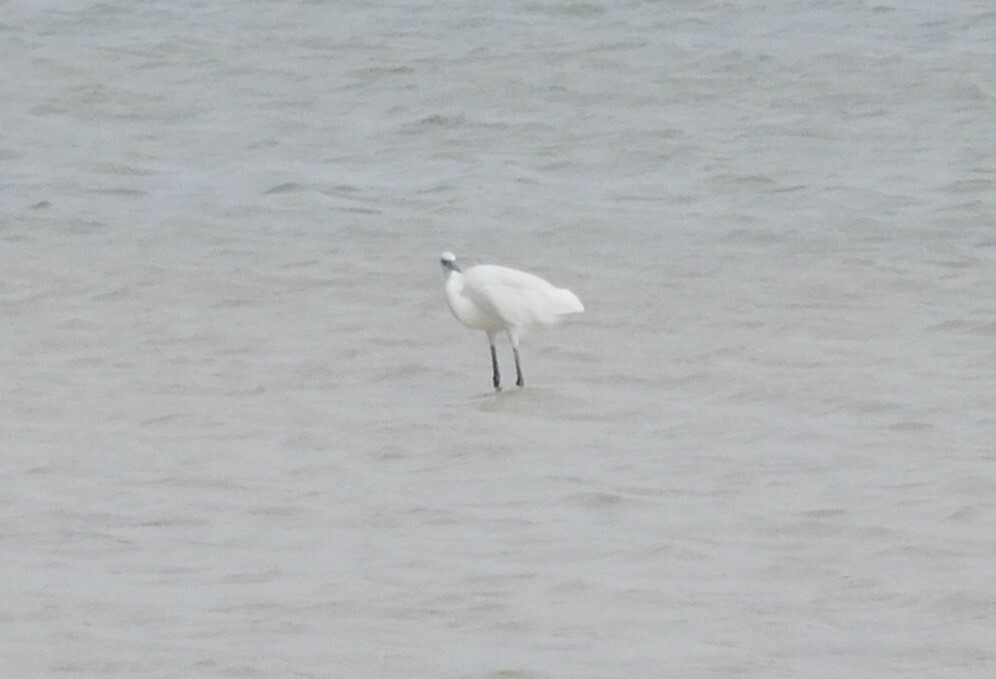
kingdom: Animalia
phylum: Chordata
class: Aves
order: Pelecaniformes
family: Ardeidae
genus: Egretta
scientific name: Egretta gularis
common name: Western reef-heron
